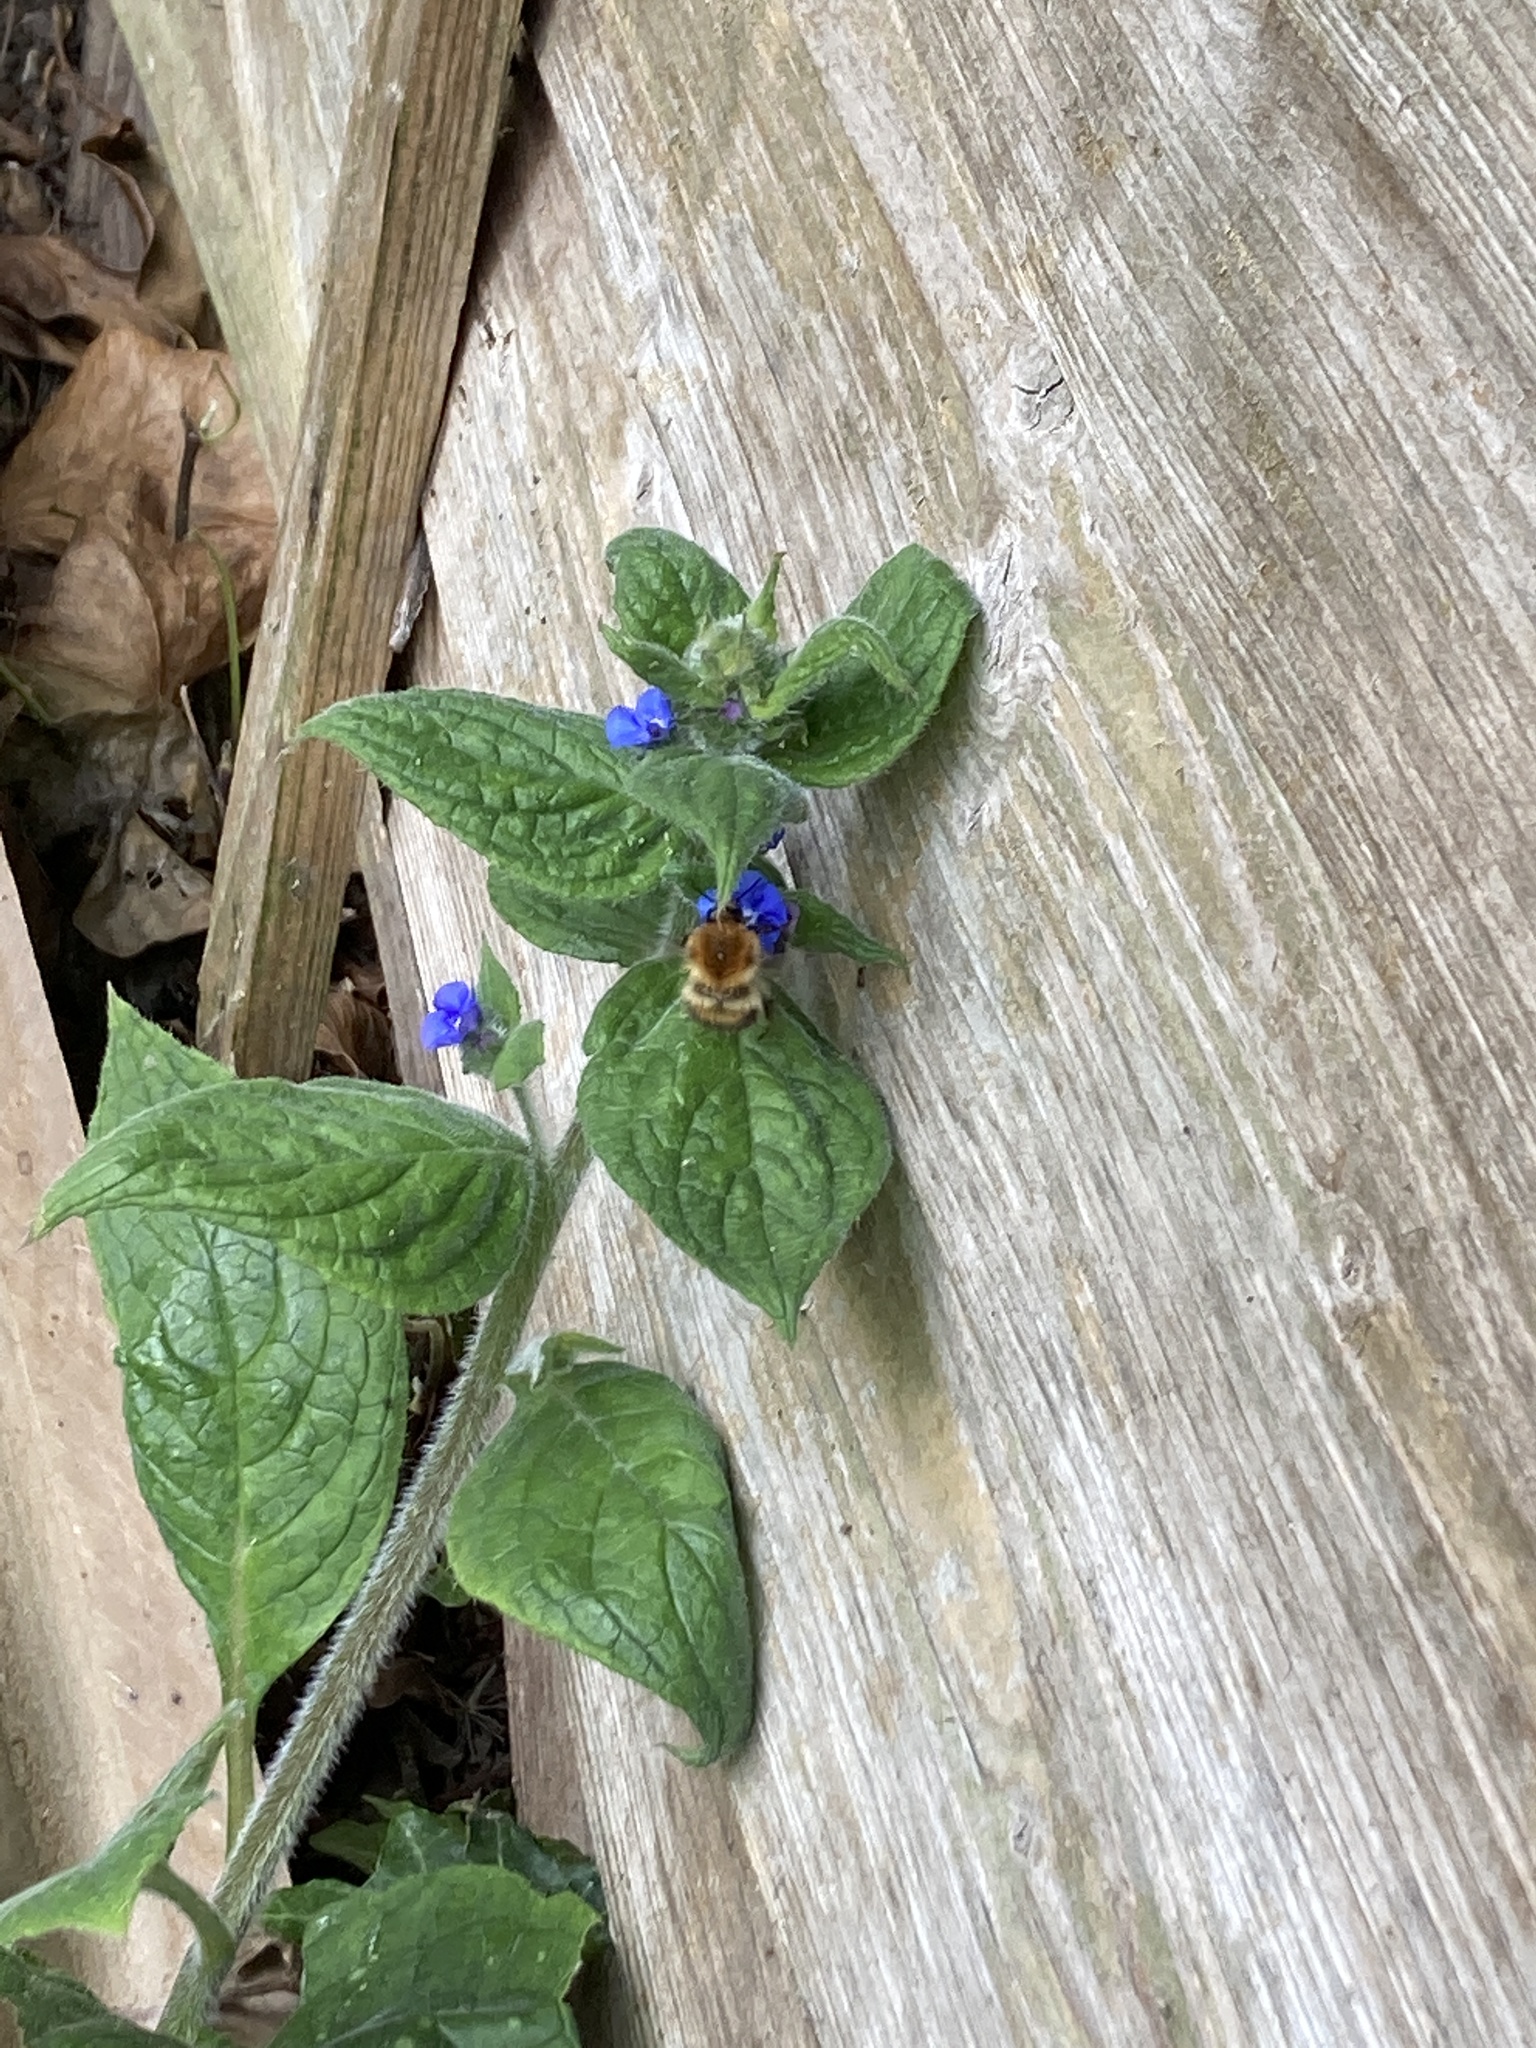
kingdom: Animalia
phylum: Arthropoda
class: Insecta
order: Hymenoptera
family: Apidae
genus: Bombus
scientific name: Bombus pascuorum
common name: Common carder bee
